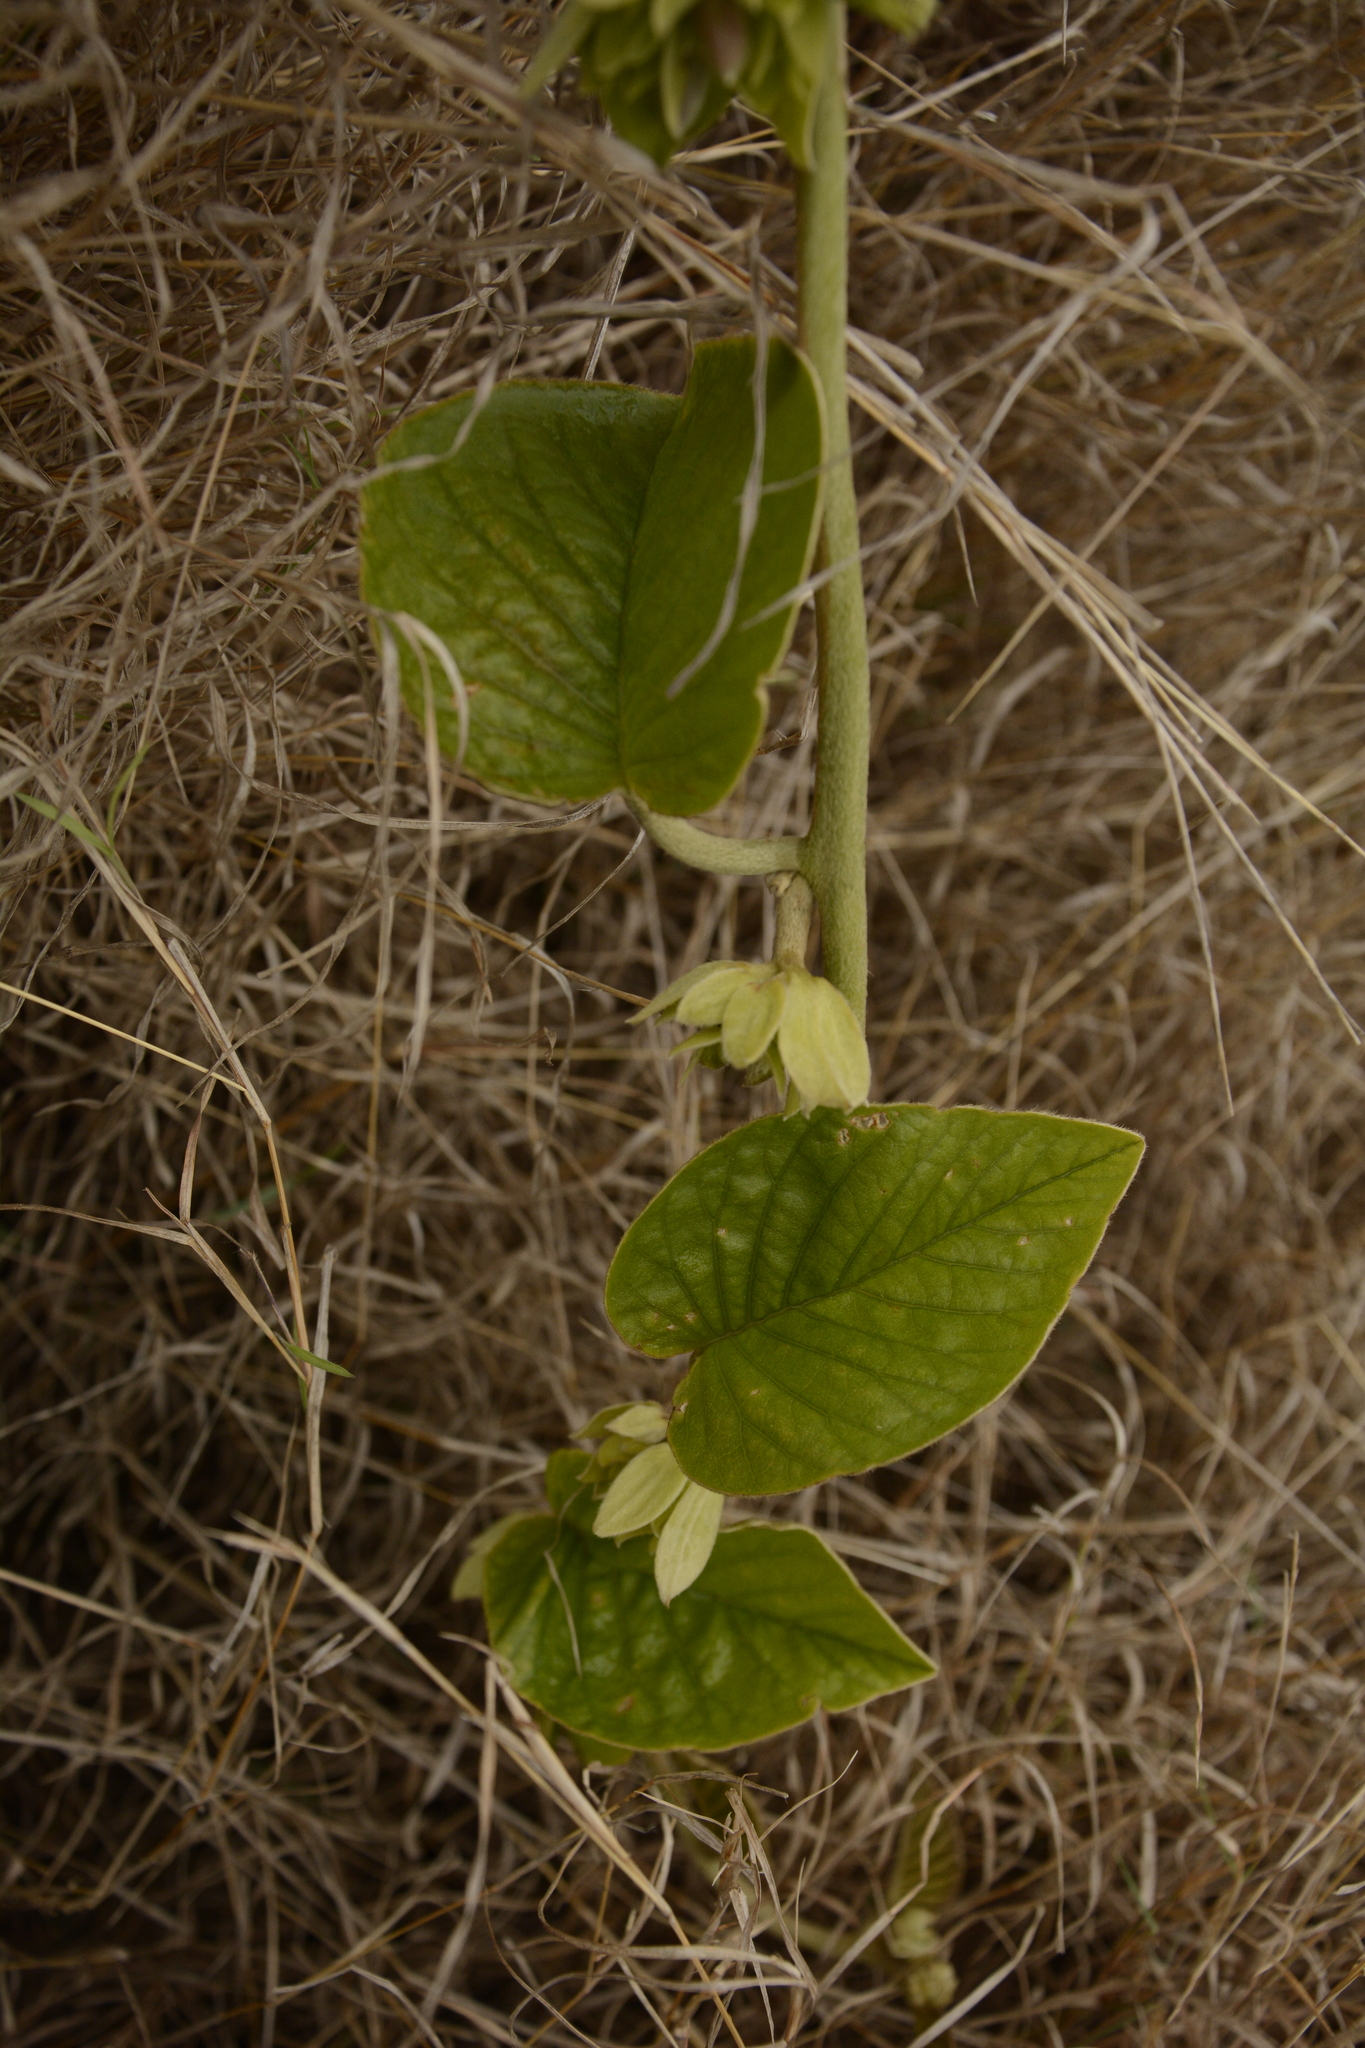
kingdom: Plantae
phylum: Tracheophyta
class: Magnoliopsida
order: Solanales
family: Convolvulaceae
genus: Argyreia
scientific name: Argyreia sericea
